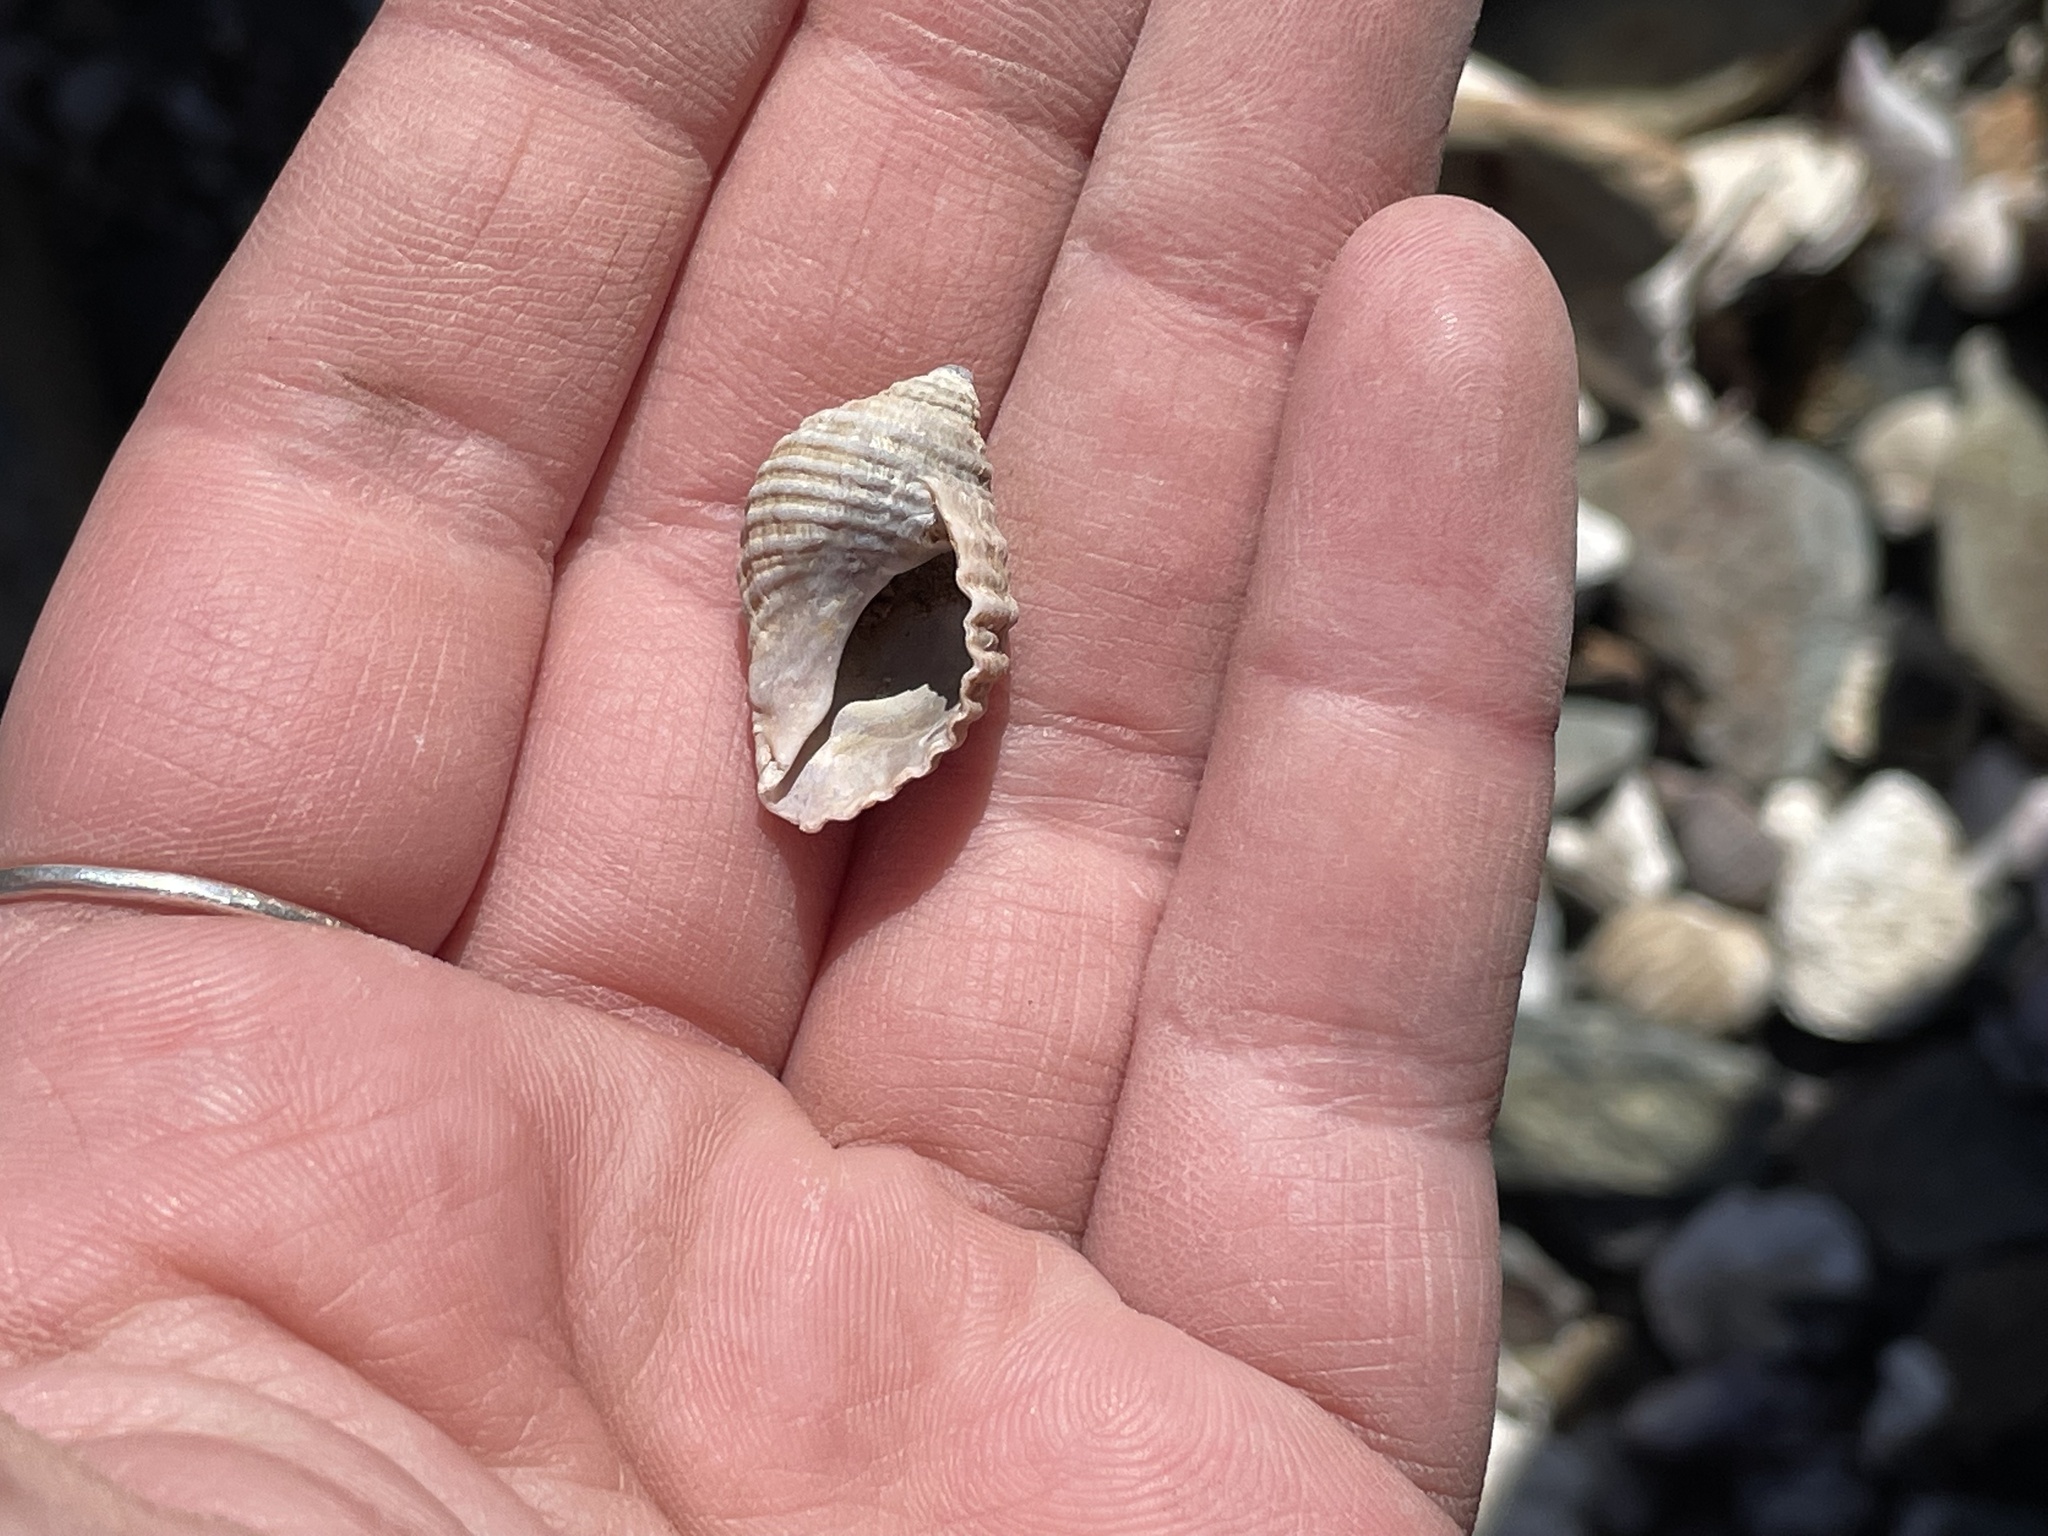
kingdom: Animalia
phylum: Mollusca
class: Gastropoda
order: Neogastropoda
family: Muricidae
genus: Nucella
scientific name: Nucella lapillus
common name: Dog whelk
